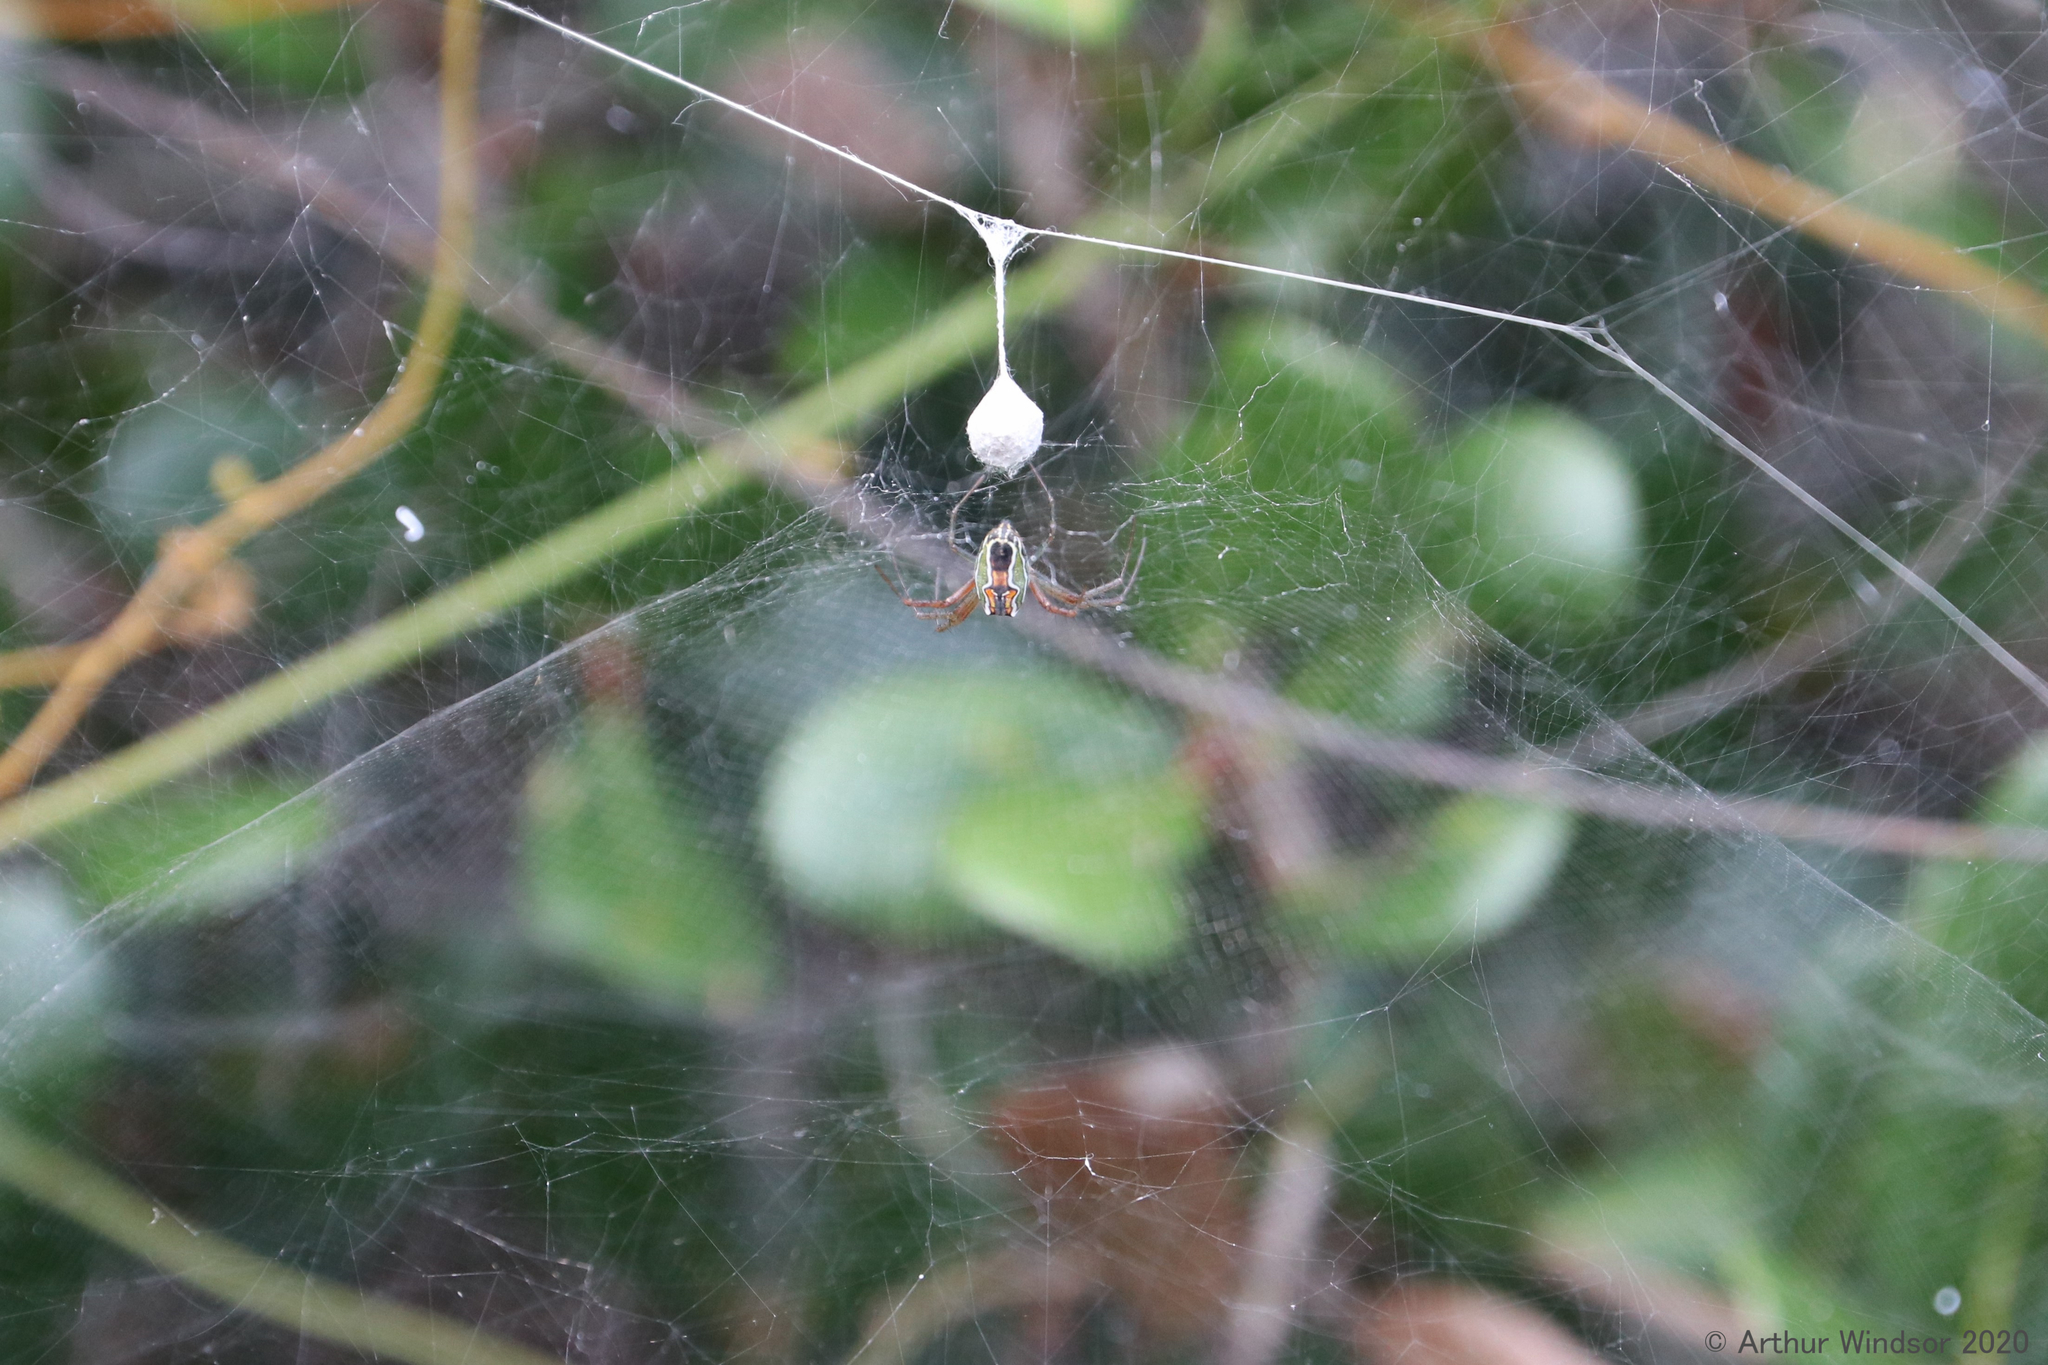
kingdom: Animalia
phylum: Arthropoda
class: Arachnida
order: Araneae
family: Araneidae
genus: Mecynogea
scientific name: Mecynogea lemniscata
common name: Orb weavers
